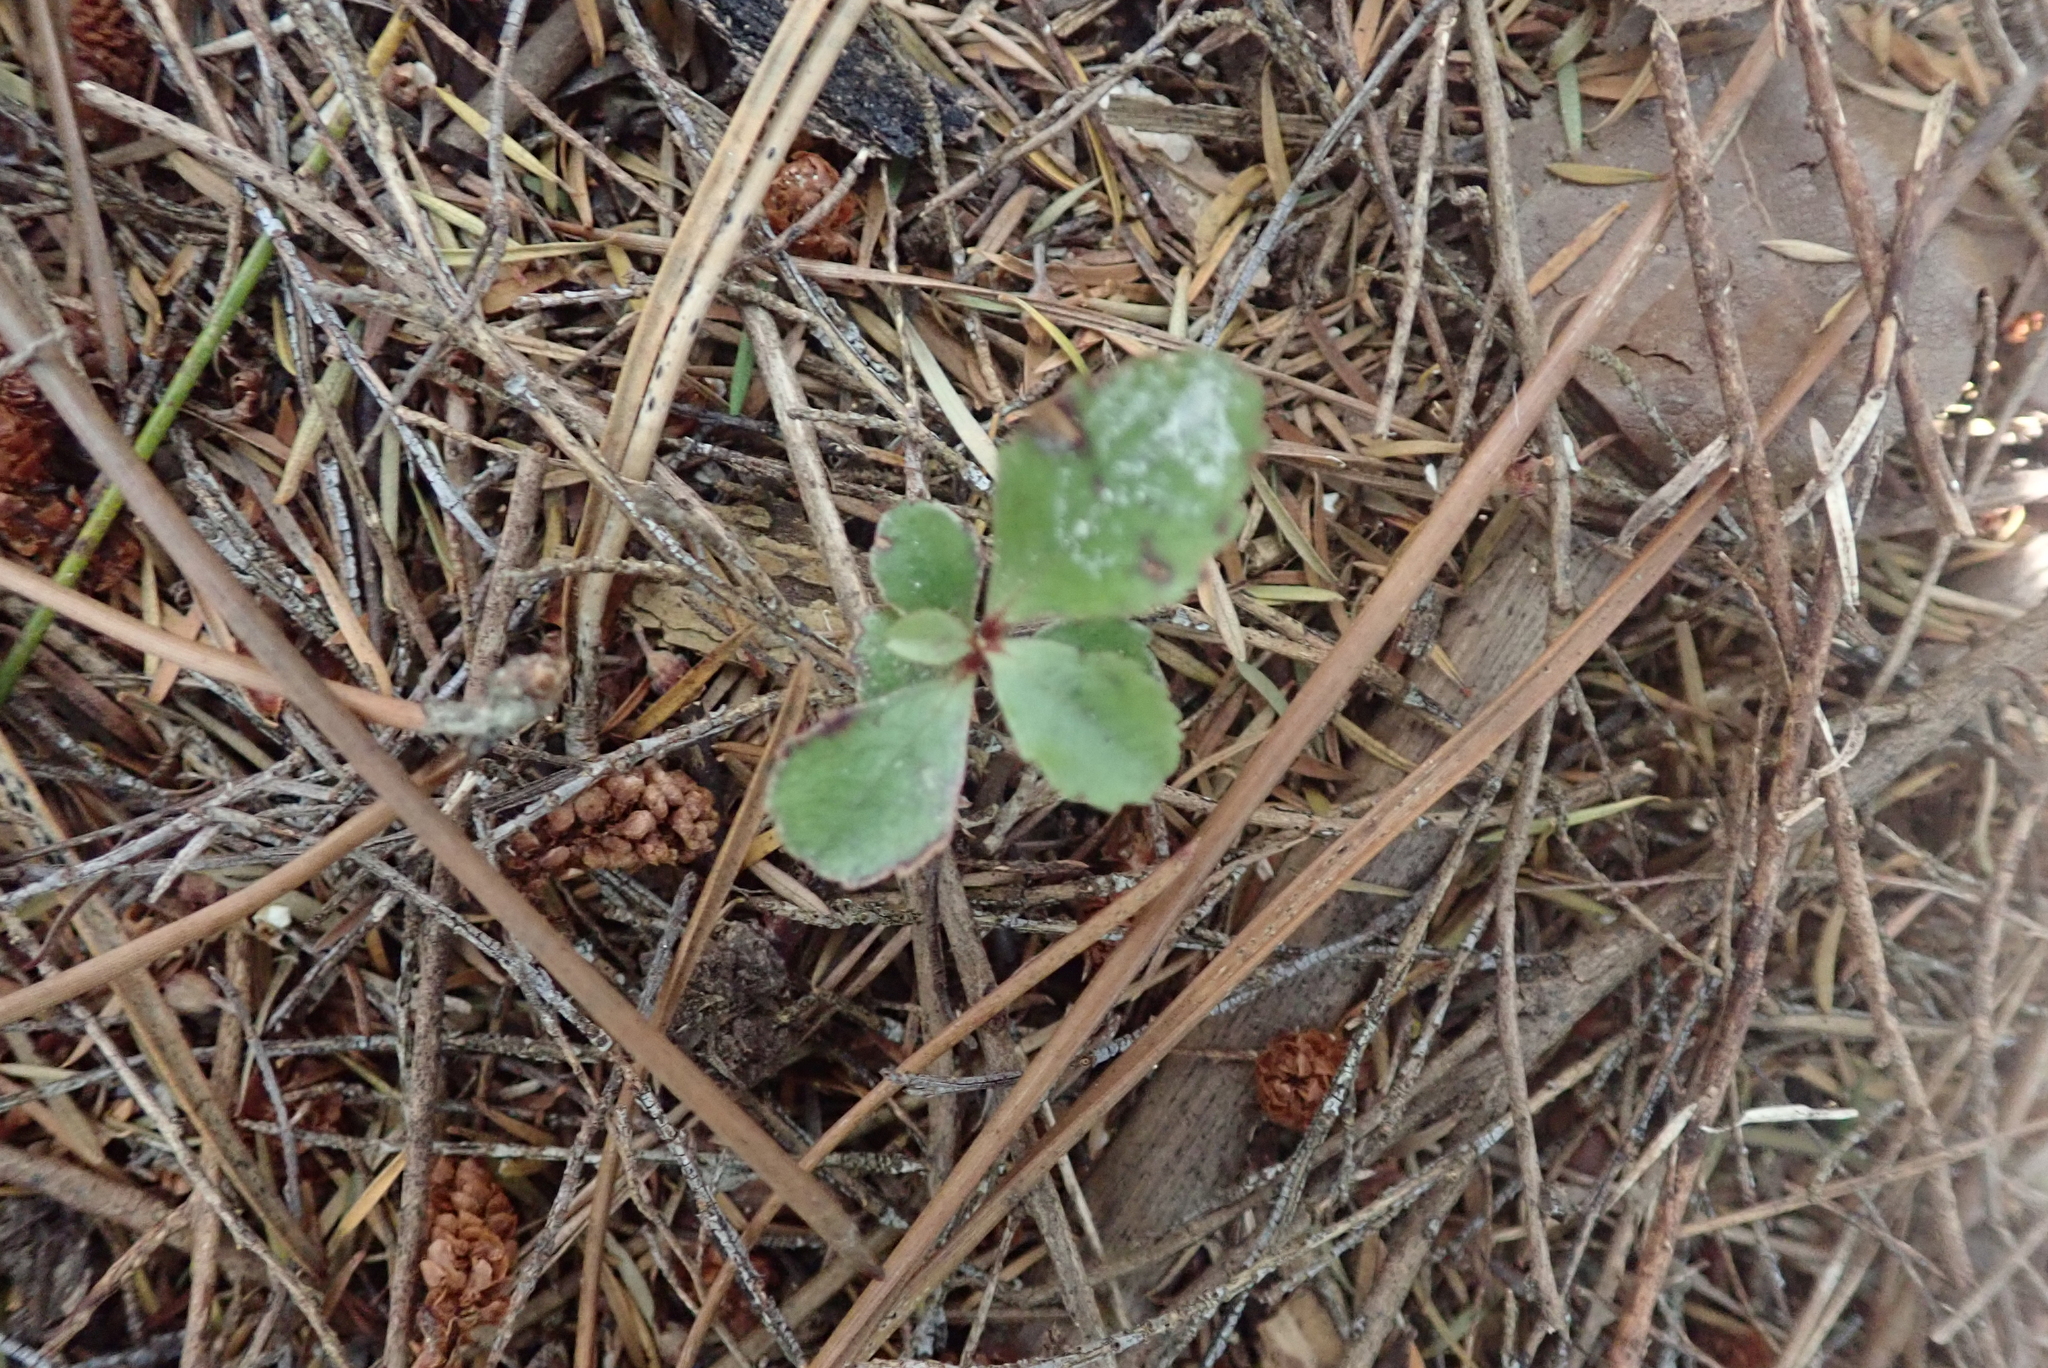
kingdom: Plantae
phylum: Tracheophyta
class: Magnoliopsida
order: Ericales
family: Primulaceae
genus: Myrsine
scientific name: Myrsine australis
